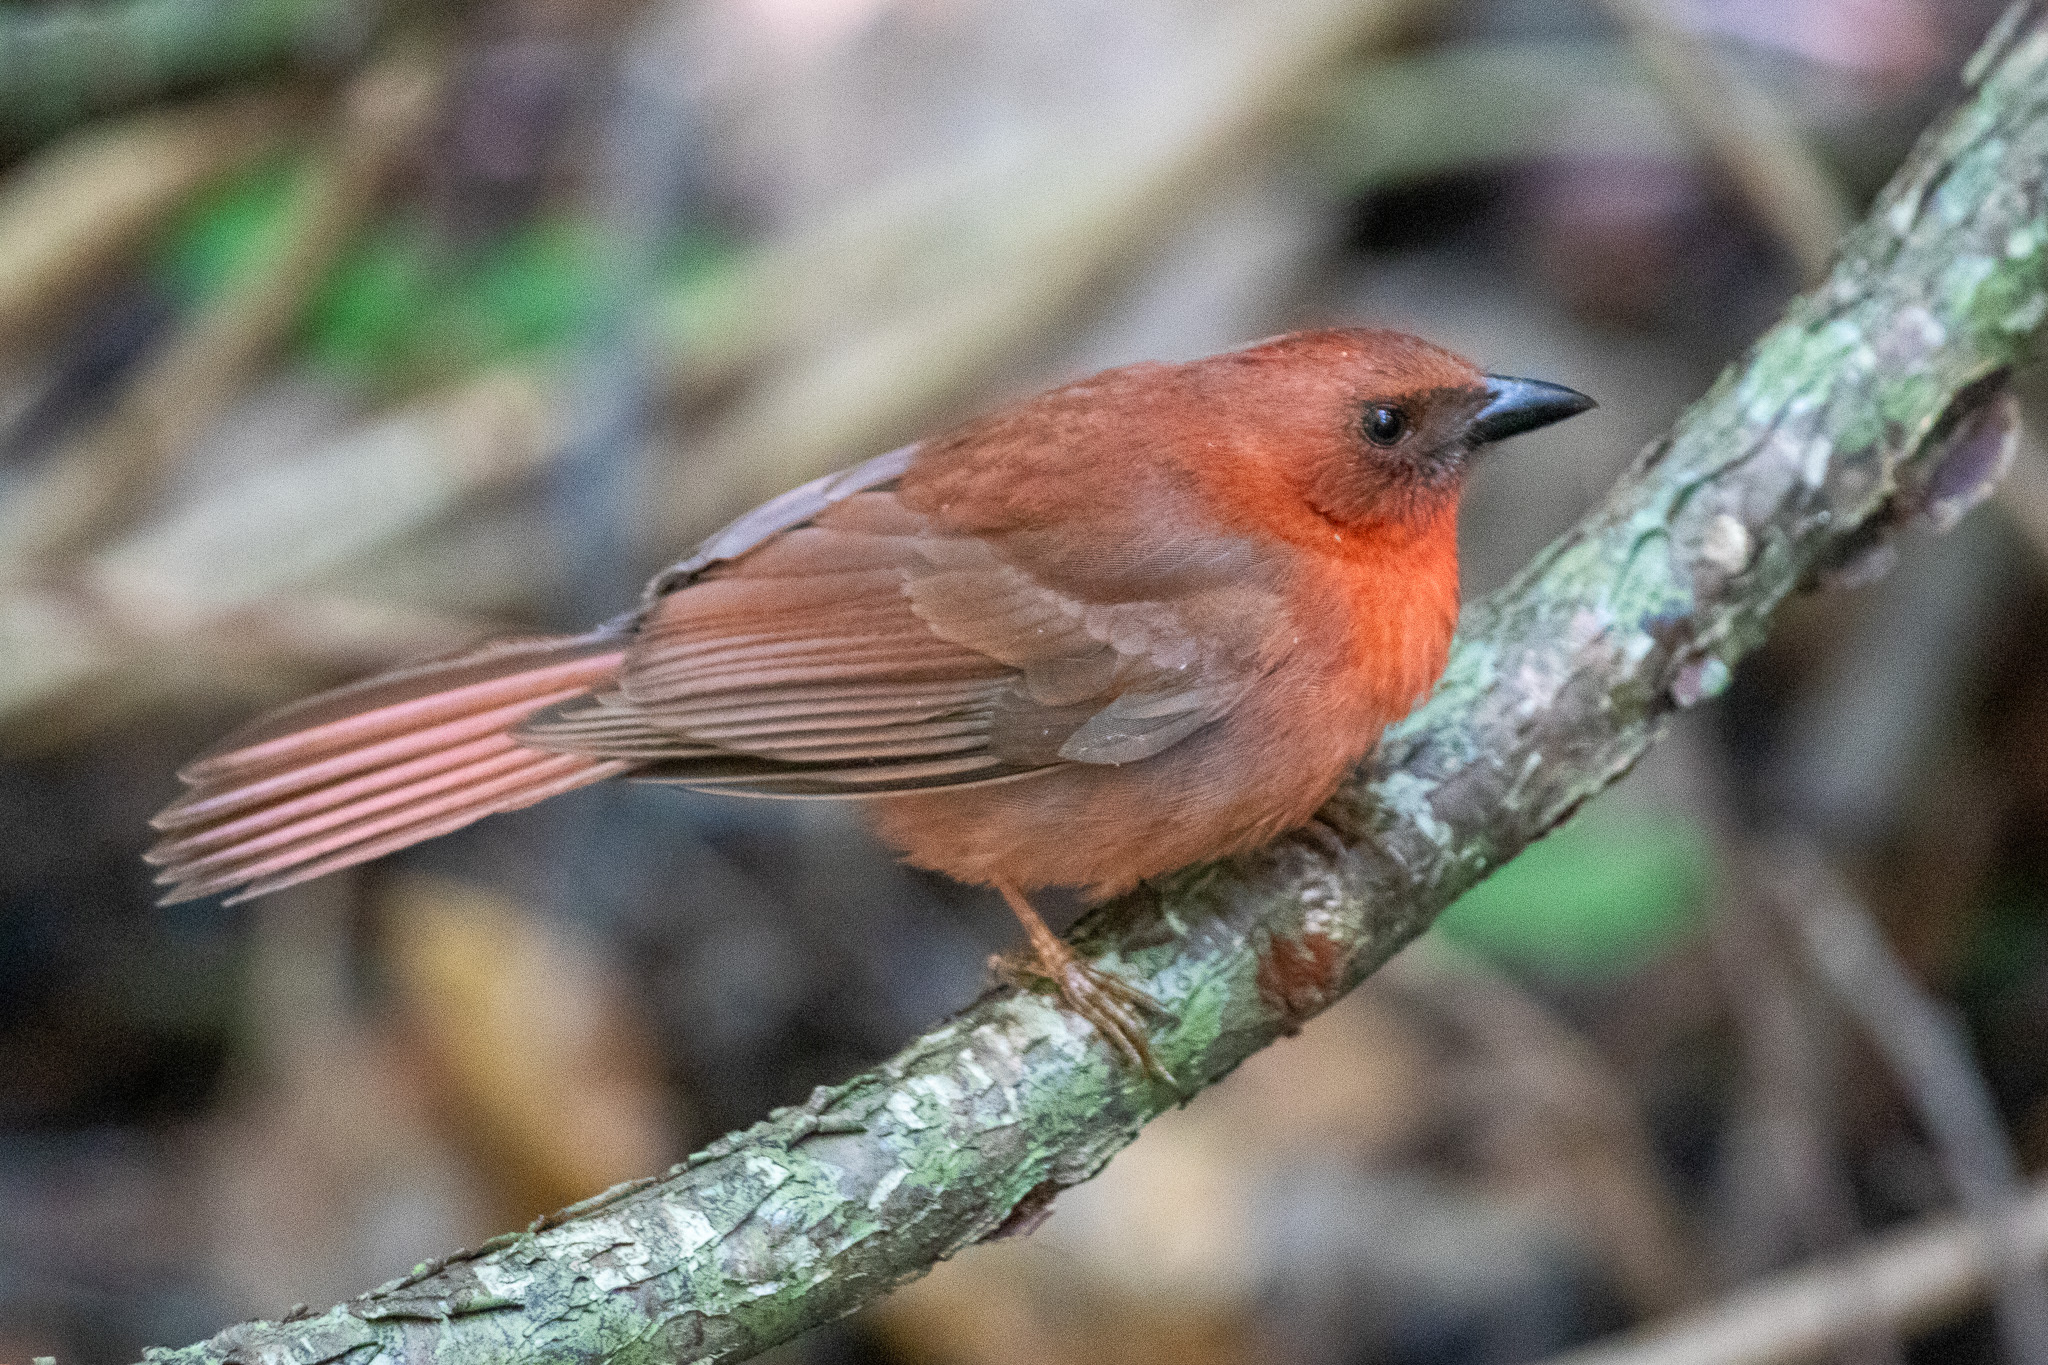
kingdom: Animalia
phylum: Chordata
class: Aves
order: Passeriformes
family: Cardinalidae
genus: Habia
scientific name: Habia fuscicauda
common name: Red-throated ant-tanager
